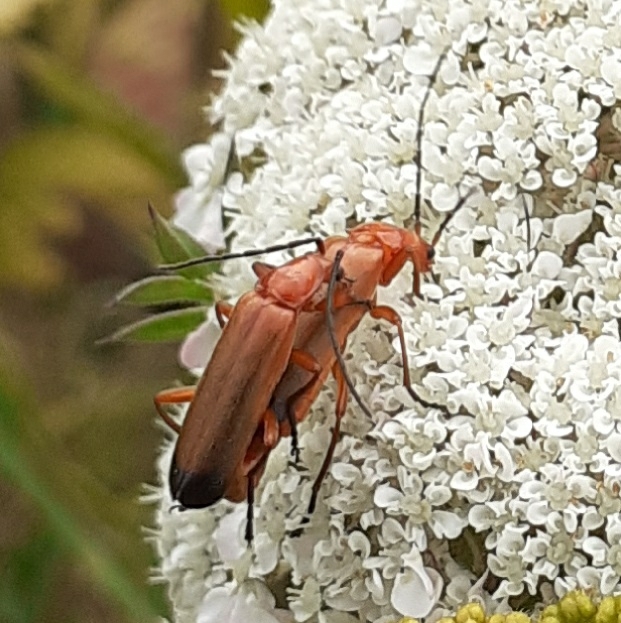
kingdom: Animalia
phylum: Arthropoda
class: Insecta
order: Coleoptera
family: Cantharidae
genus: Rhagonycha
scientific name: Rhagonycha fulva
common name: Common red soldier beetle
